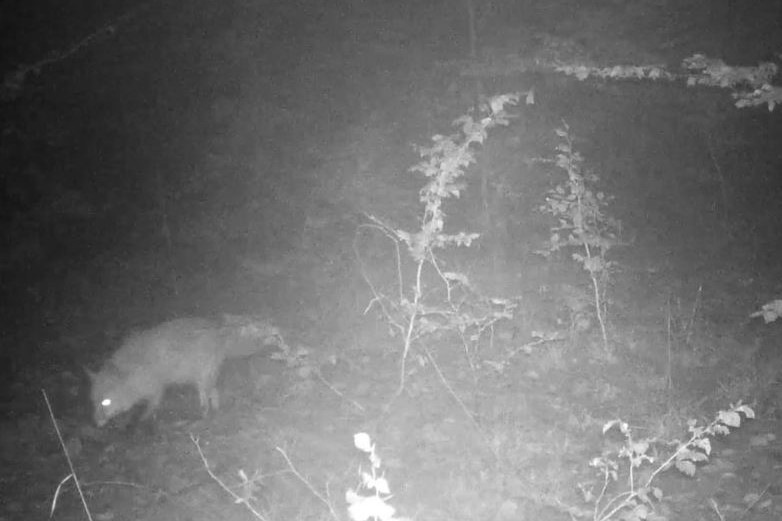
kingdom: Animalia
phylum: Chordata
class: Mammalia
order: Carnivora
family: Canidae
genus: Vulpes
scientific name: Vulpes vulpes
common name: Red fox
